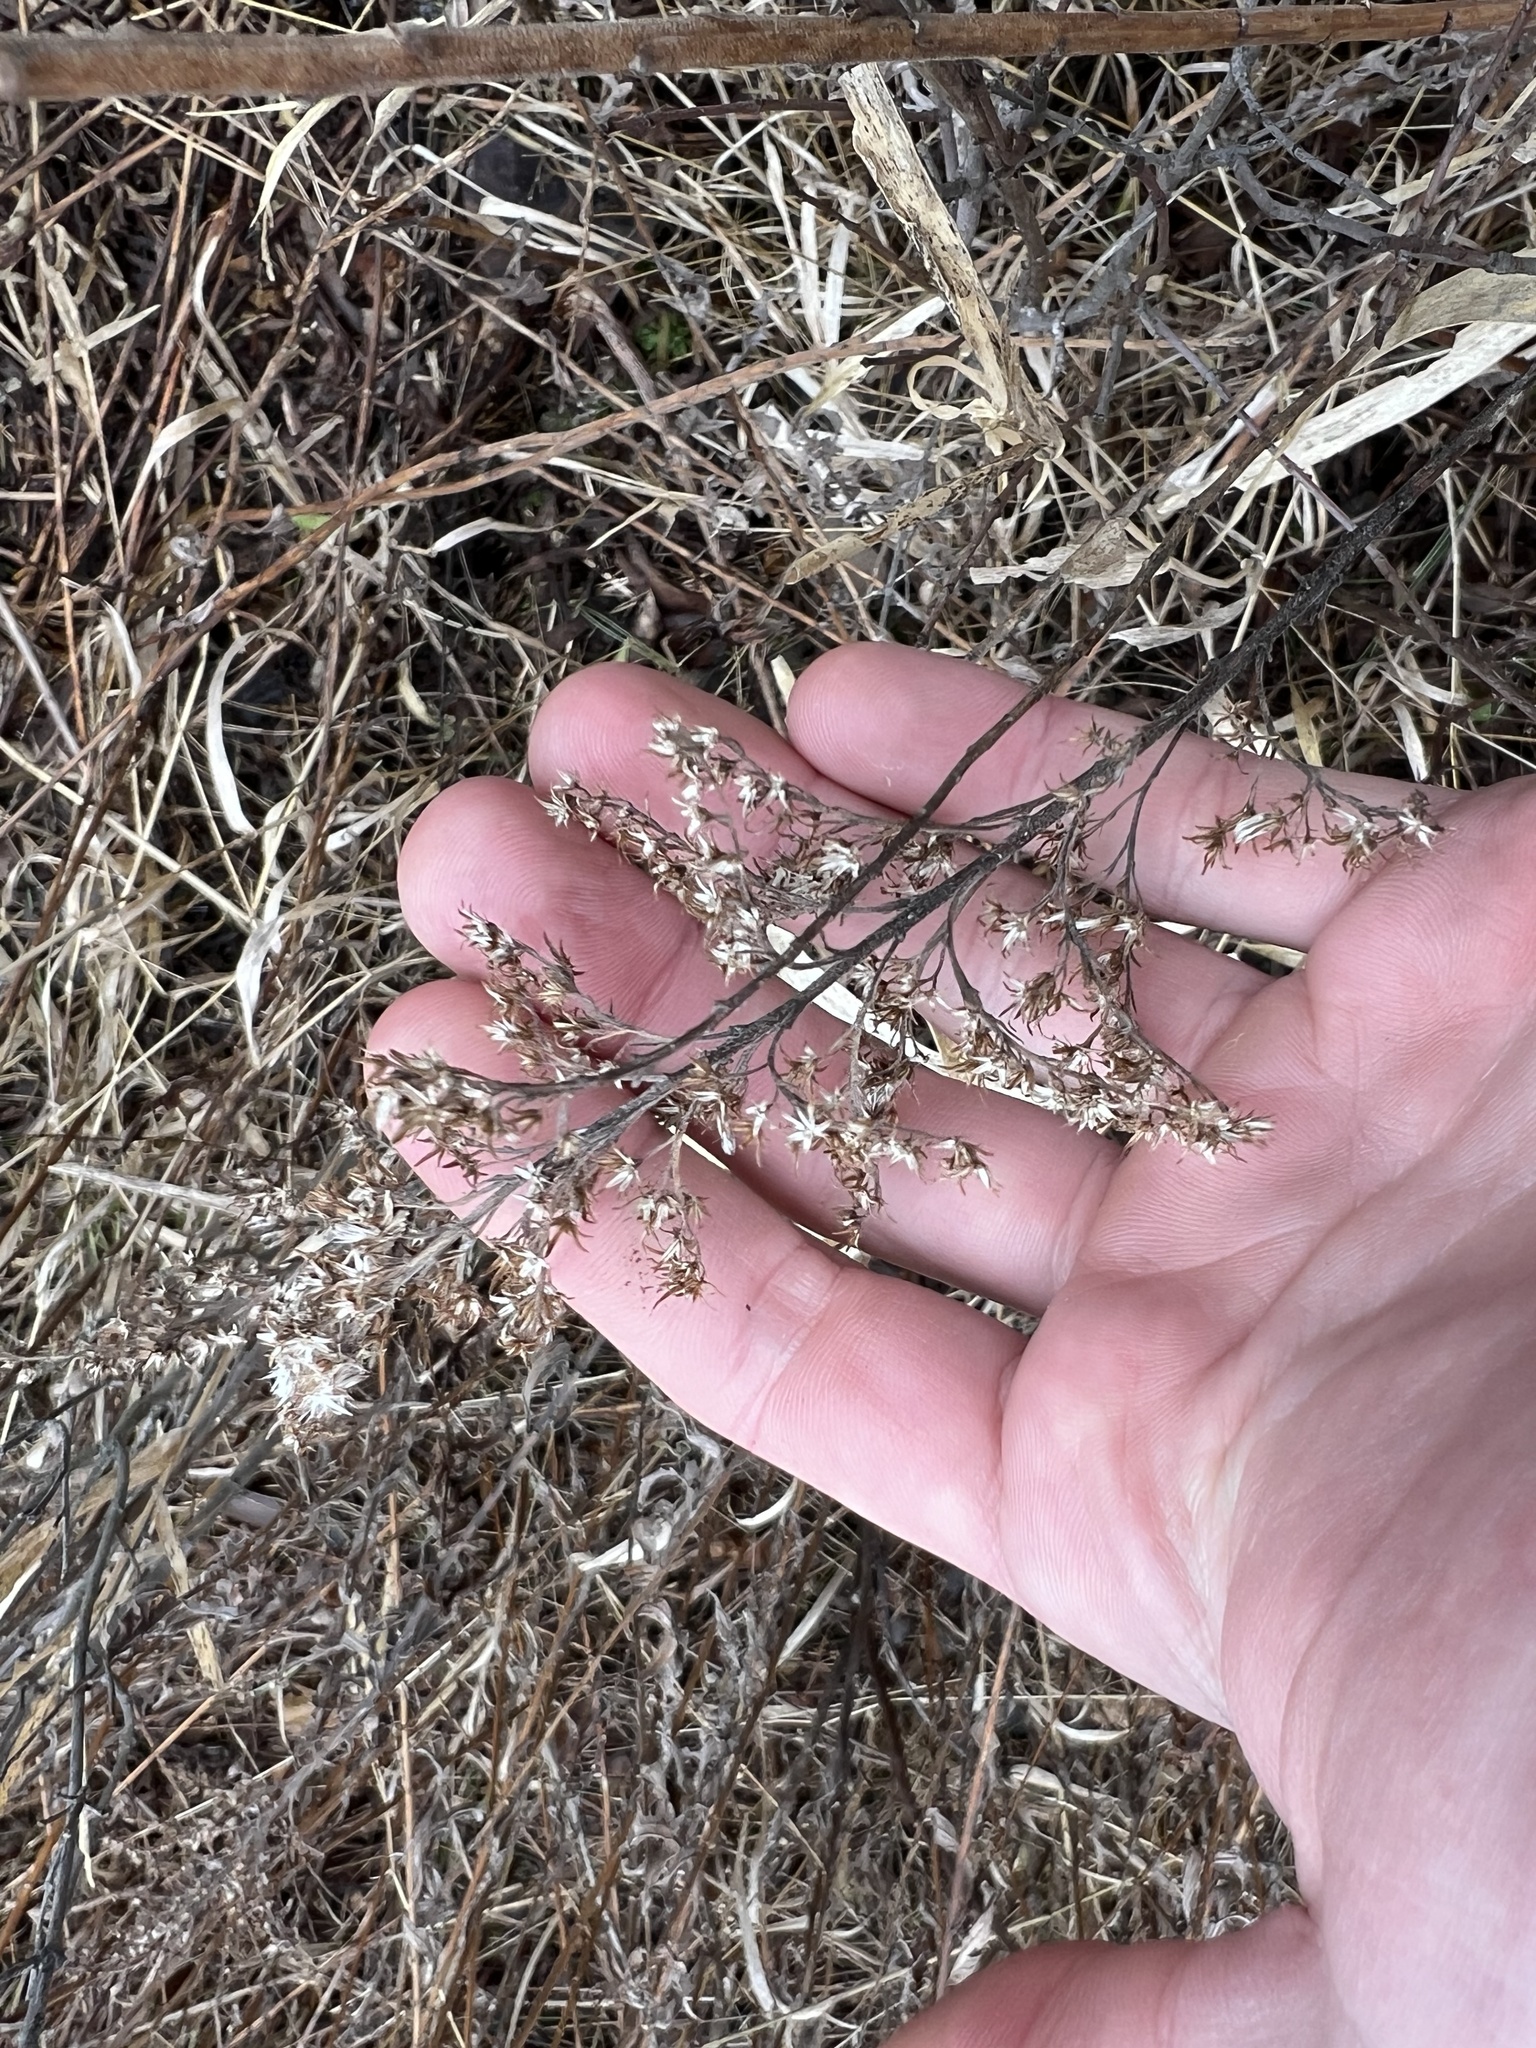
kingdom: Animalia
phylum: Arthropoda
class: Insecta
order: Diptera
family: Tephritidae
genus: Eurosta
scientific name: Eurosta solidaginis
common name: Goldenrod gall fly
